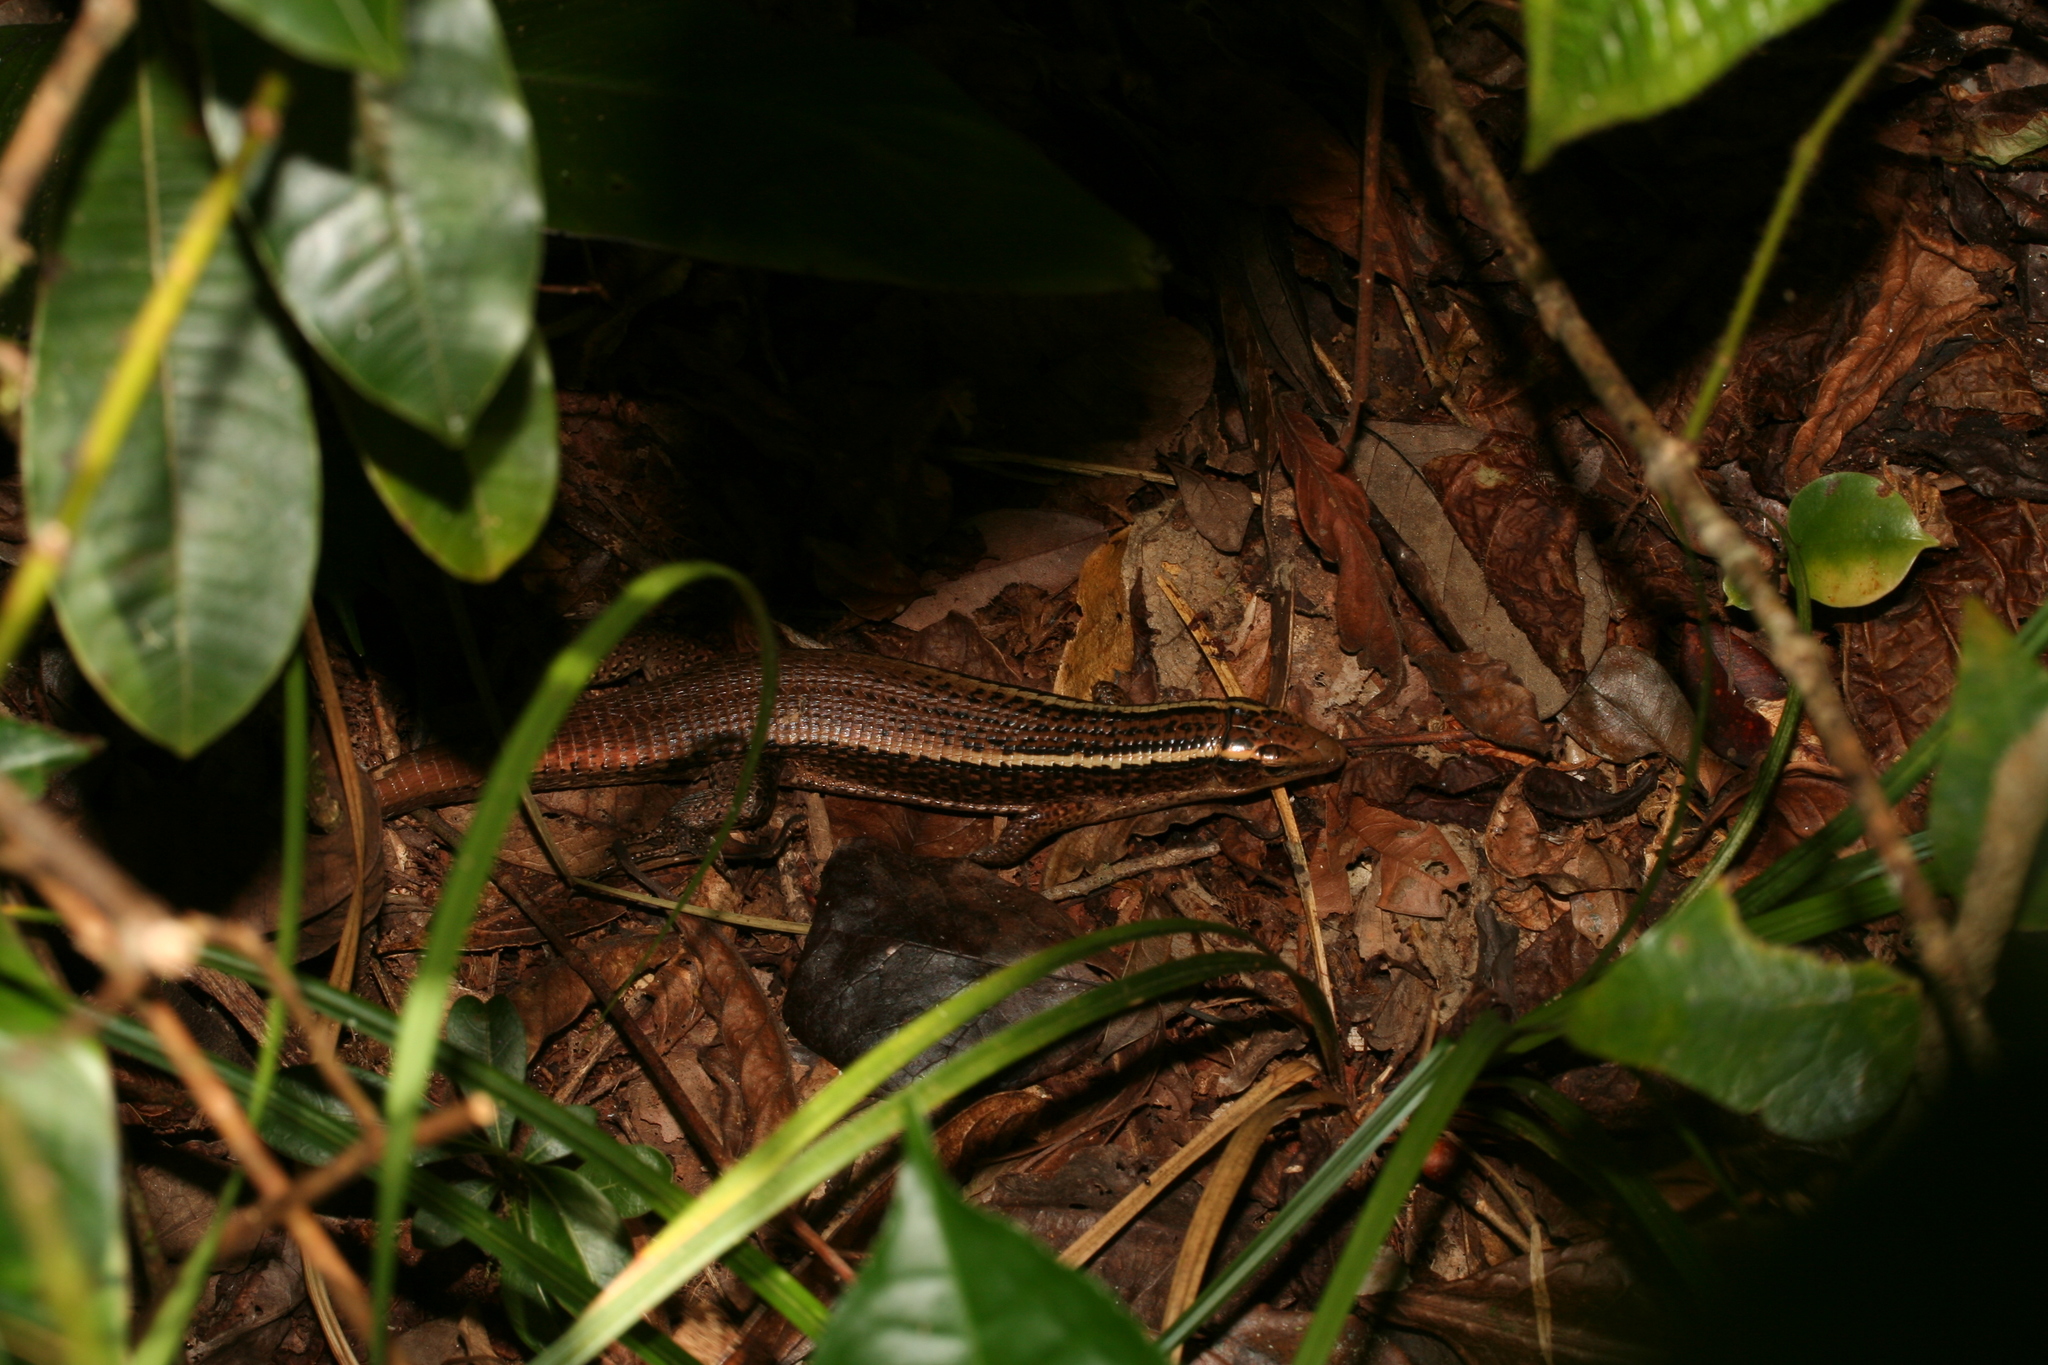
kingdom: Animalia
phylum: Chordata
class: Squamata
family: Gerrhosauridae
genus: Zonosaurus
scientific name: Zonosaurus madagascariensis
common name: Madagascar girdled lizard
